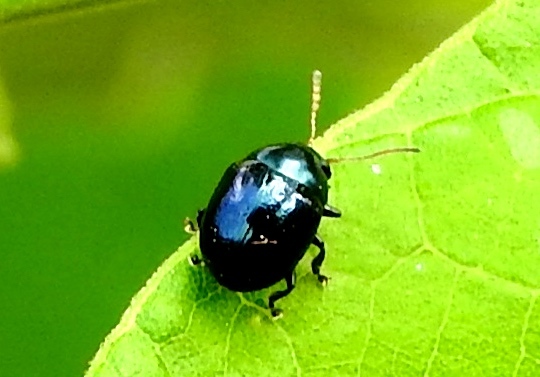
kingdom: Animalia
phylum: Arthropoda
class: Insecta
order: Coleoptera
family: Chrysomelidae
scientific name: Chrysomelidae
